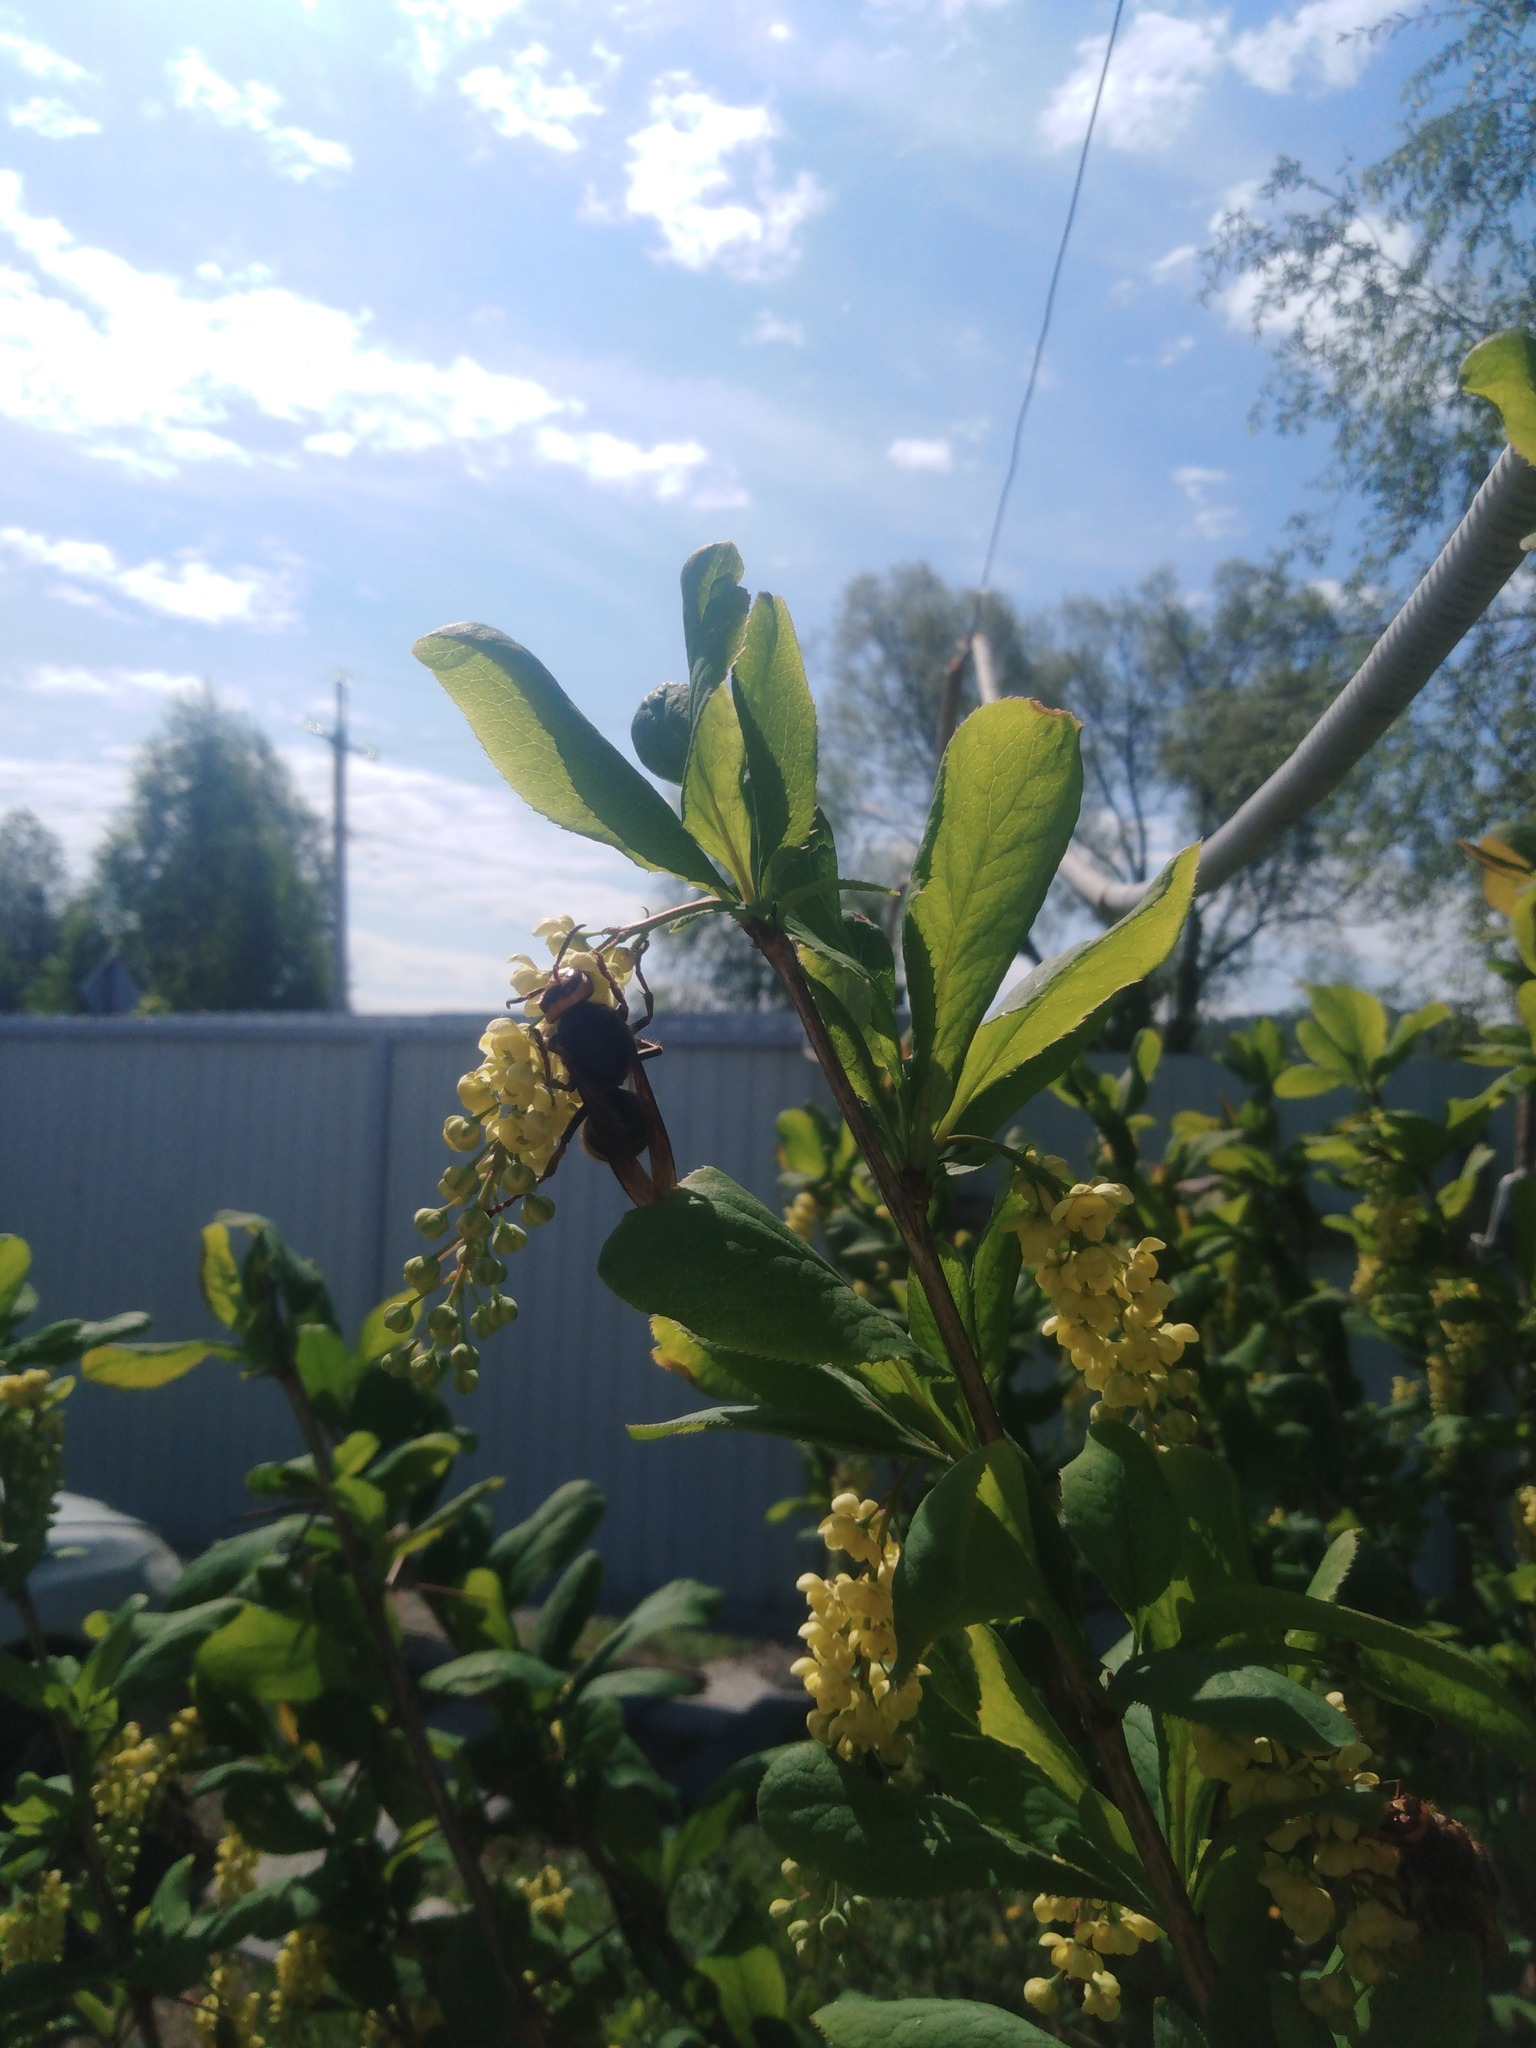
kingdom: Animalia
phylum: Arthropoda
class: Insecta
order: Hymenoptera
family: Vespidae
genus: Vespa
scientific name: Vespa crabro
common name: Hornet
